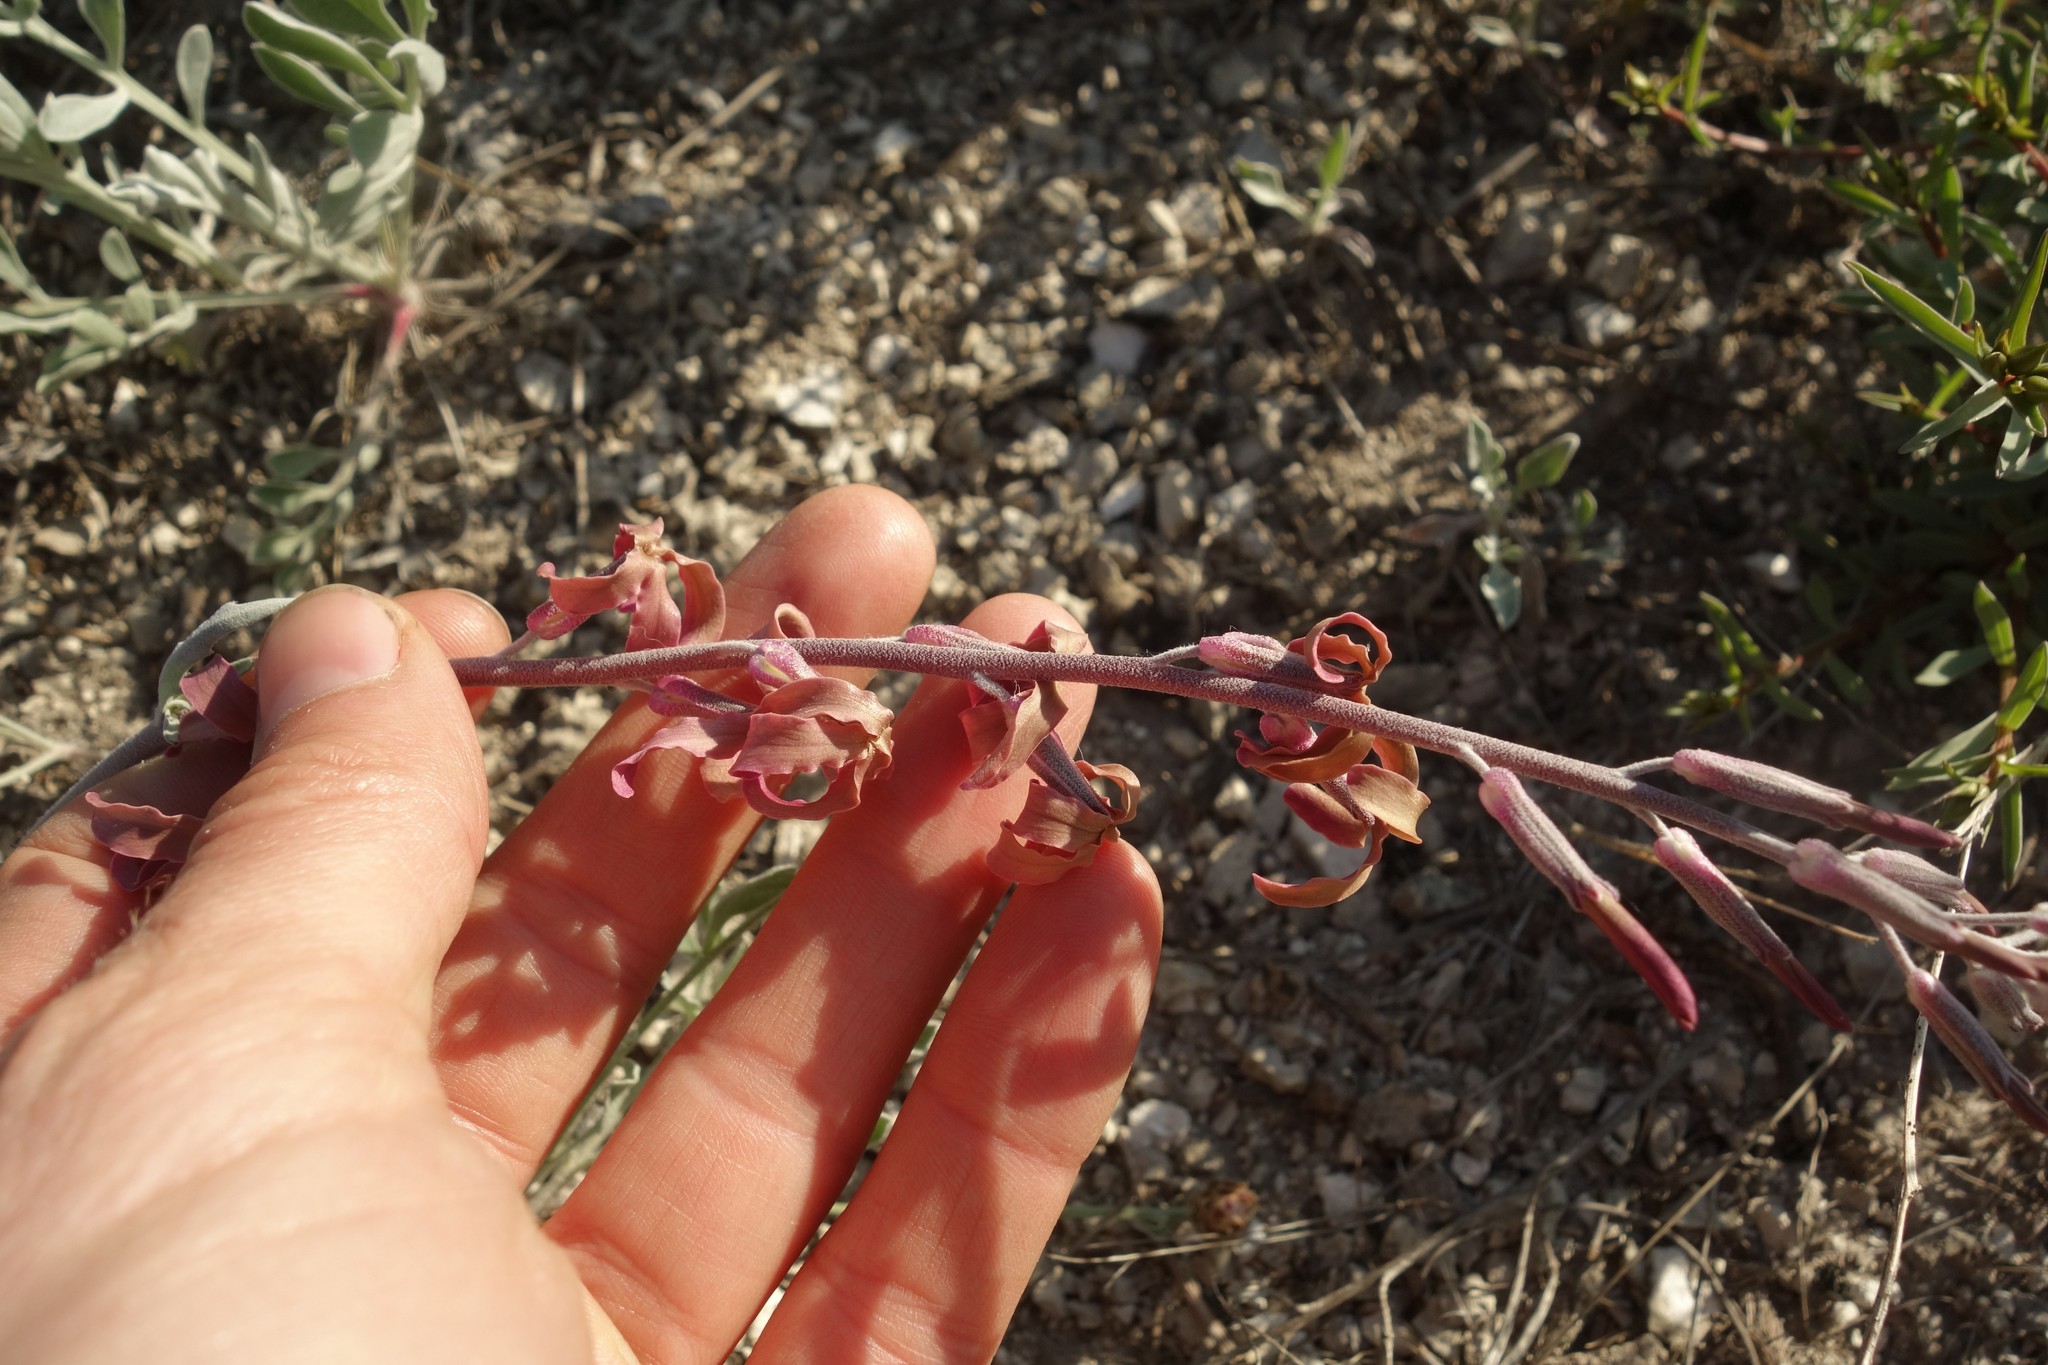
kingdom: Plantae
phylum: Tracheophyta
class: Magnoliopsida
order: Brassicales
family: Brassicaceae
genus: Matthiola
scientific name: Matthiola fragrans
